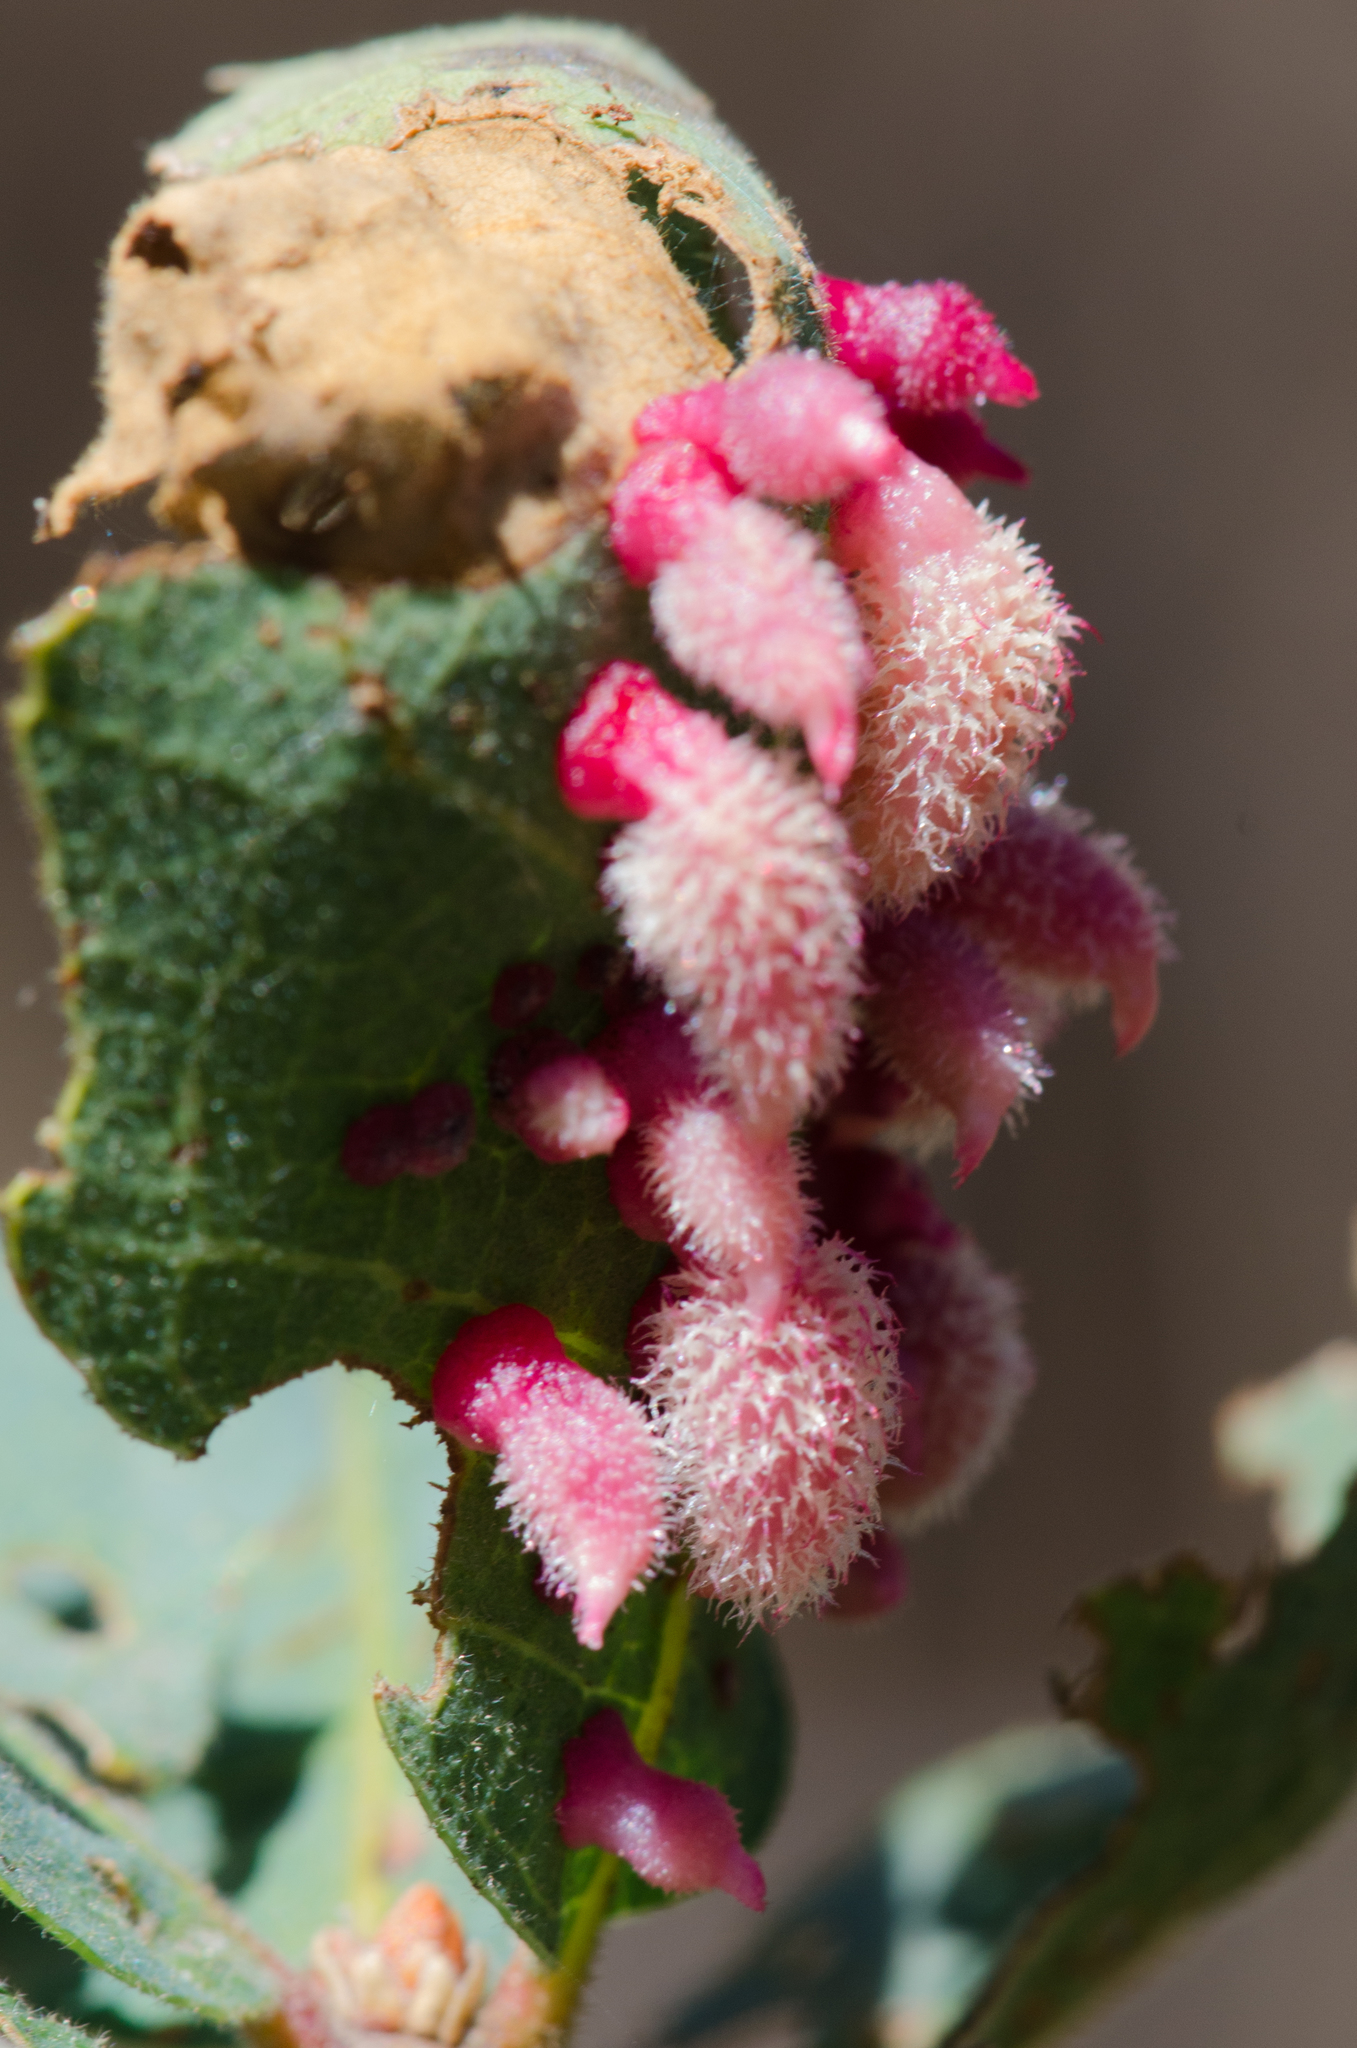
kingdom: Animalia
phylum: Arthropoda
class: Insecta
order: Hymenoptera
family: Cynipidae
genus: Andricus
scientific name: Andricus
